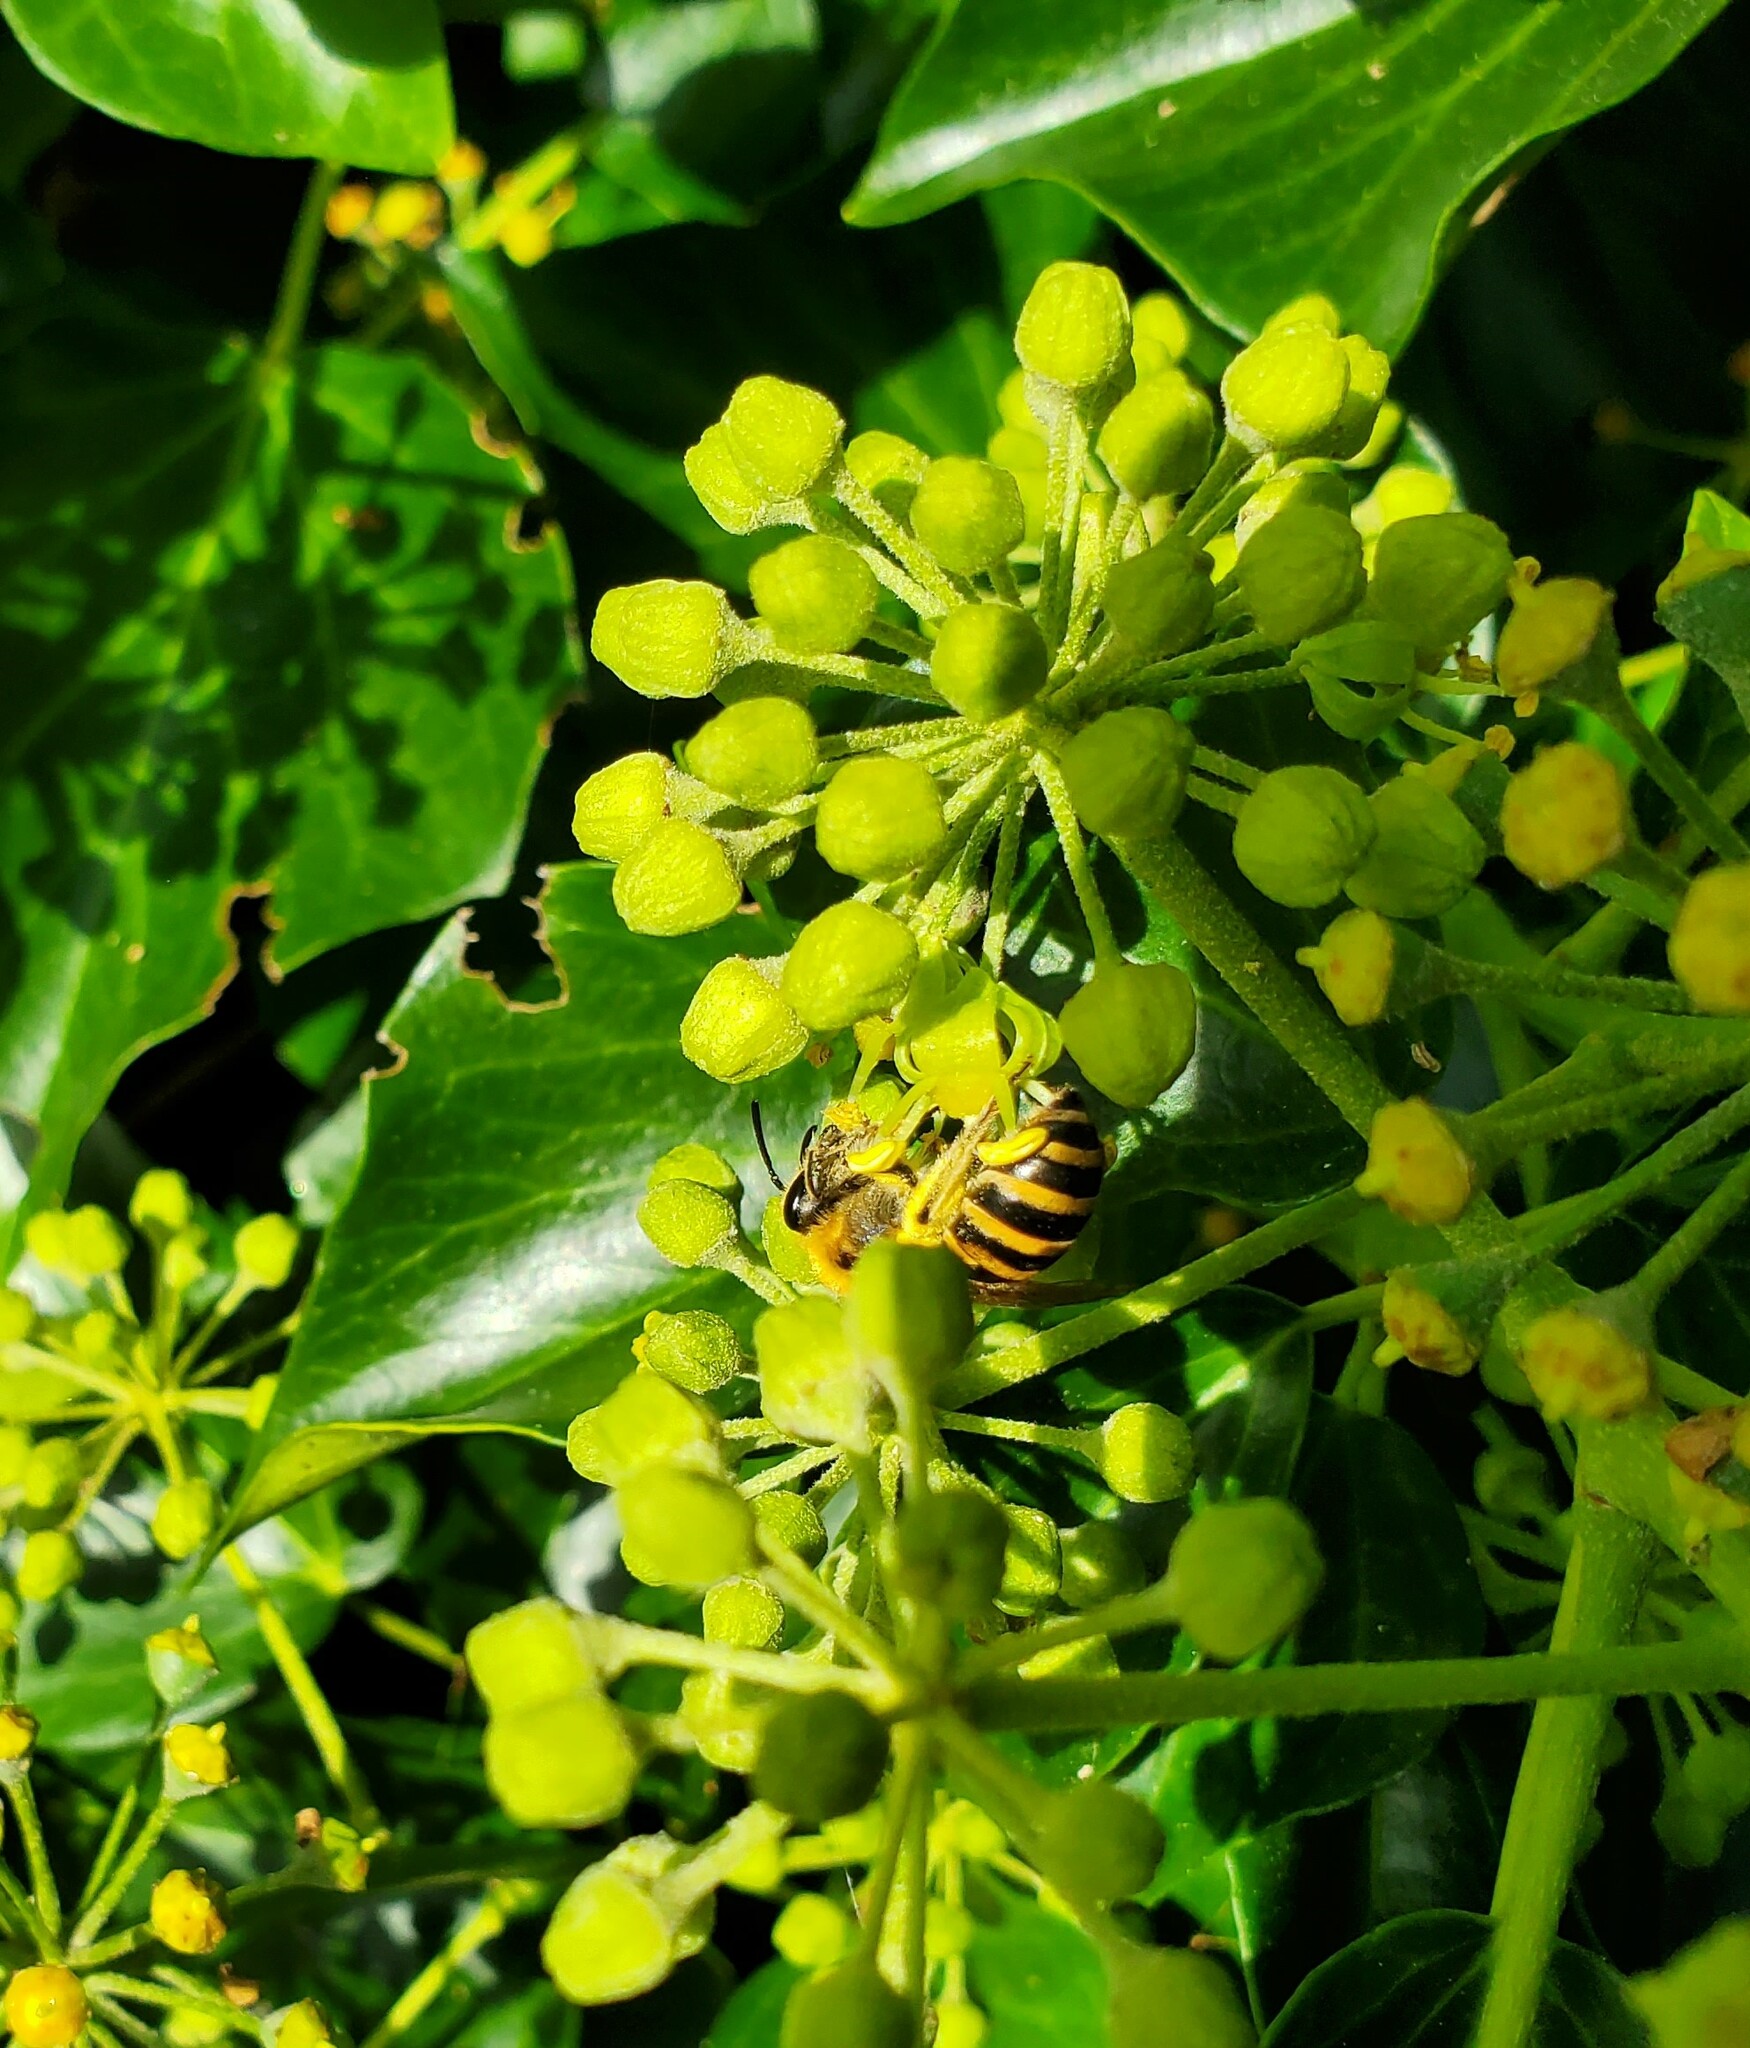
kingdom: Animalia
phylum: Arthropoda
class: Insecta
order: Hymenoptera
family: Colletidae
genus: Colletes
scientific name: Colletes hederae
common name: Ivy bee
